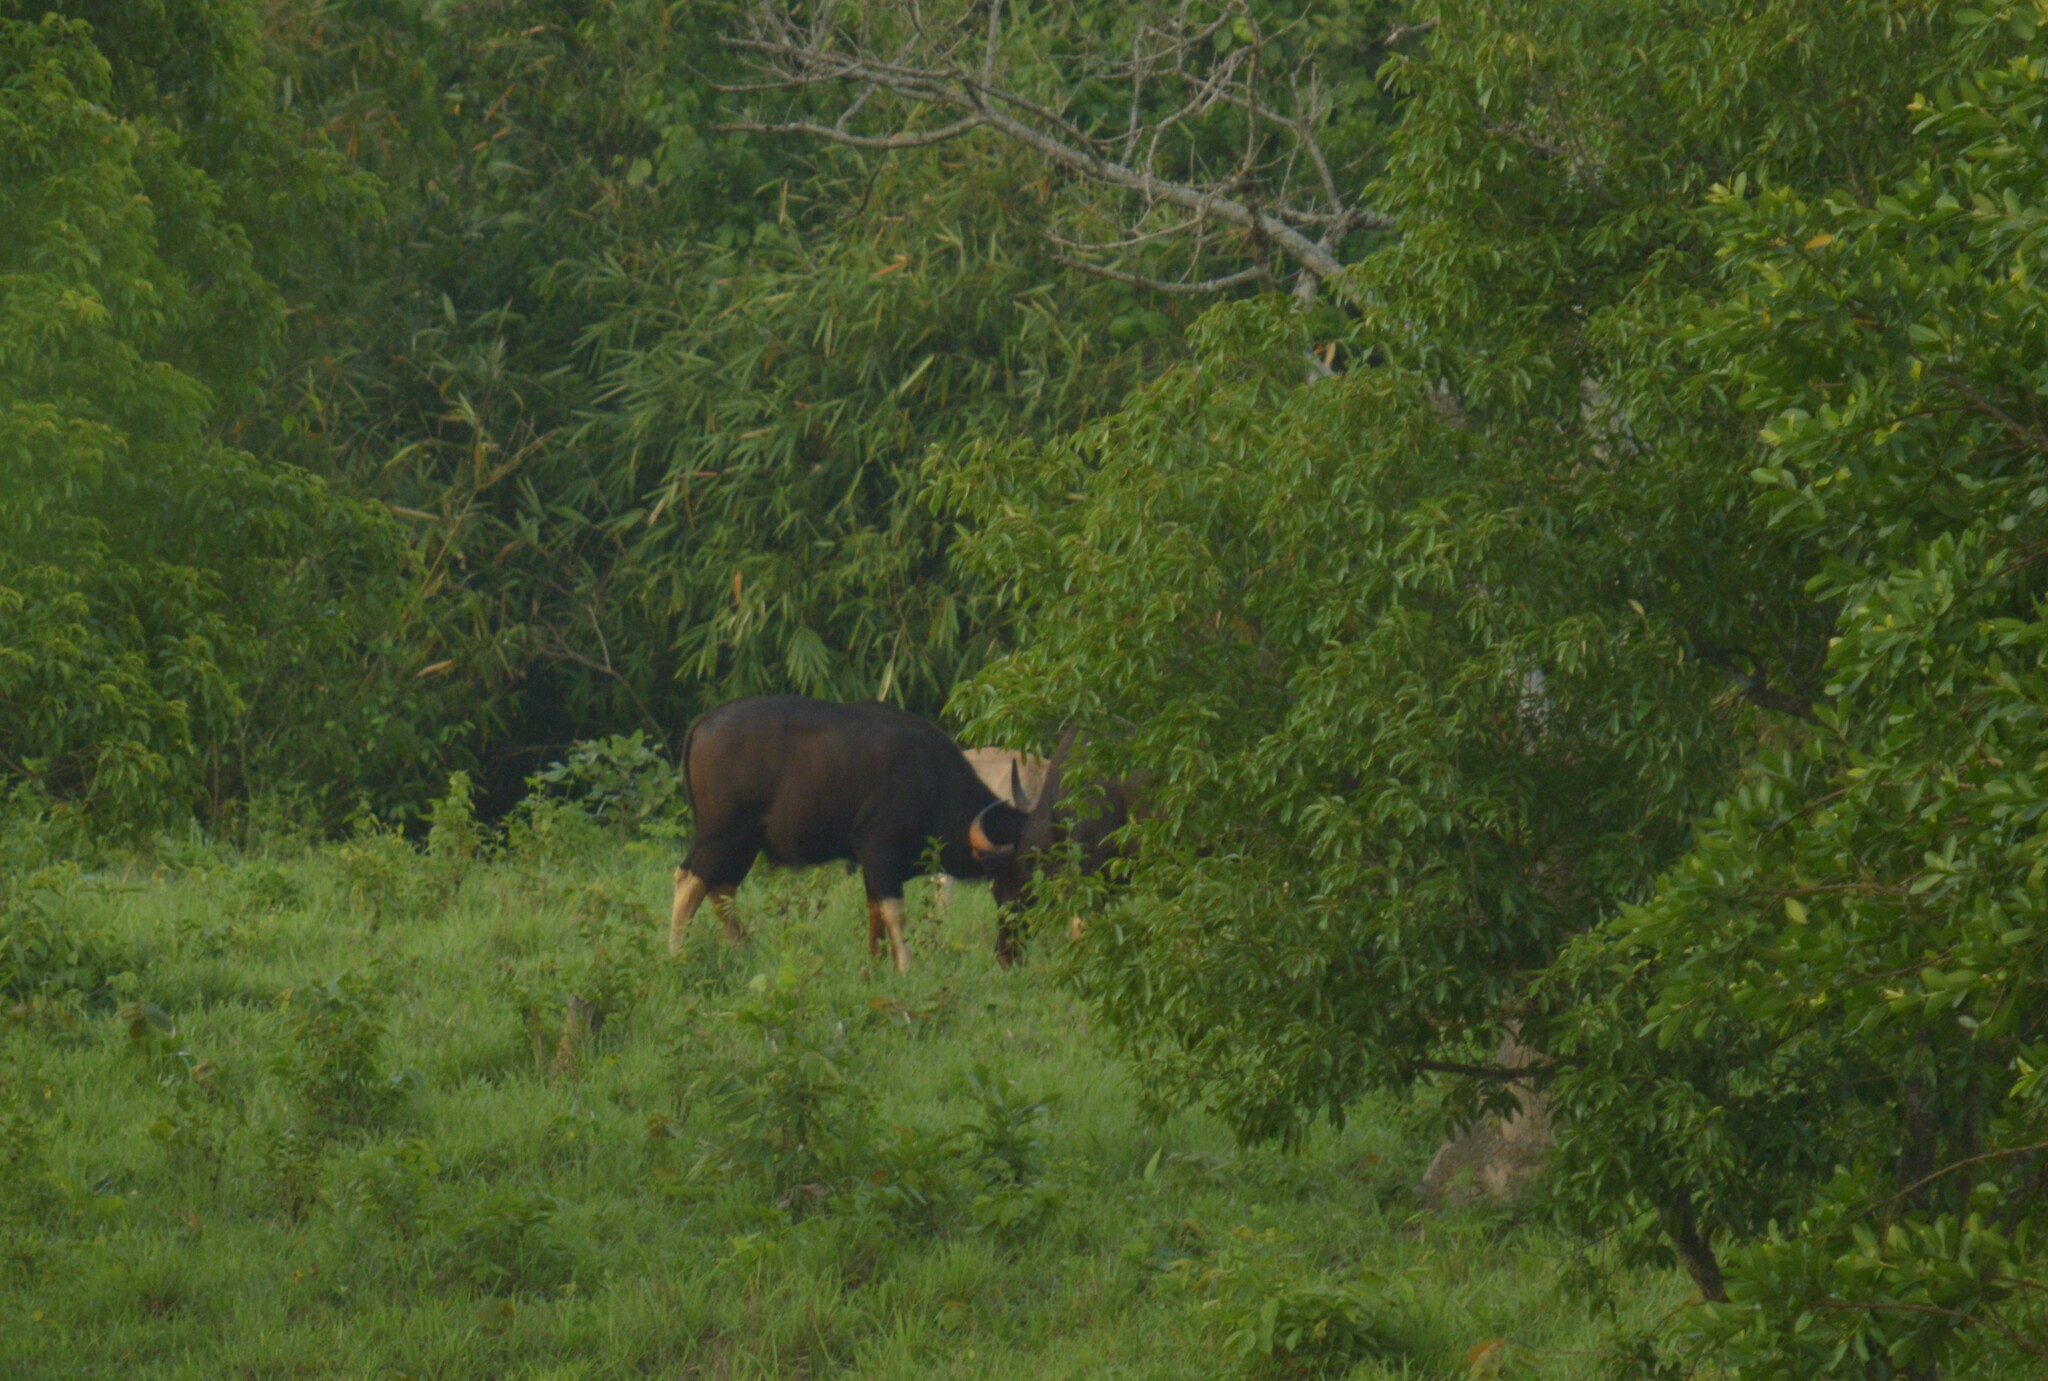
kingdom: Animalia
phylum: Chordata
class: Mammalia
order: Artiodactyla
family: Bovidae
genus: Bos
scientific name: Bos frontalis
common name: Gaur
